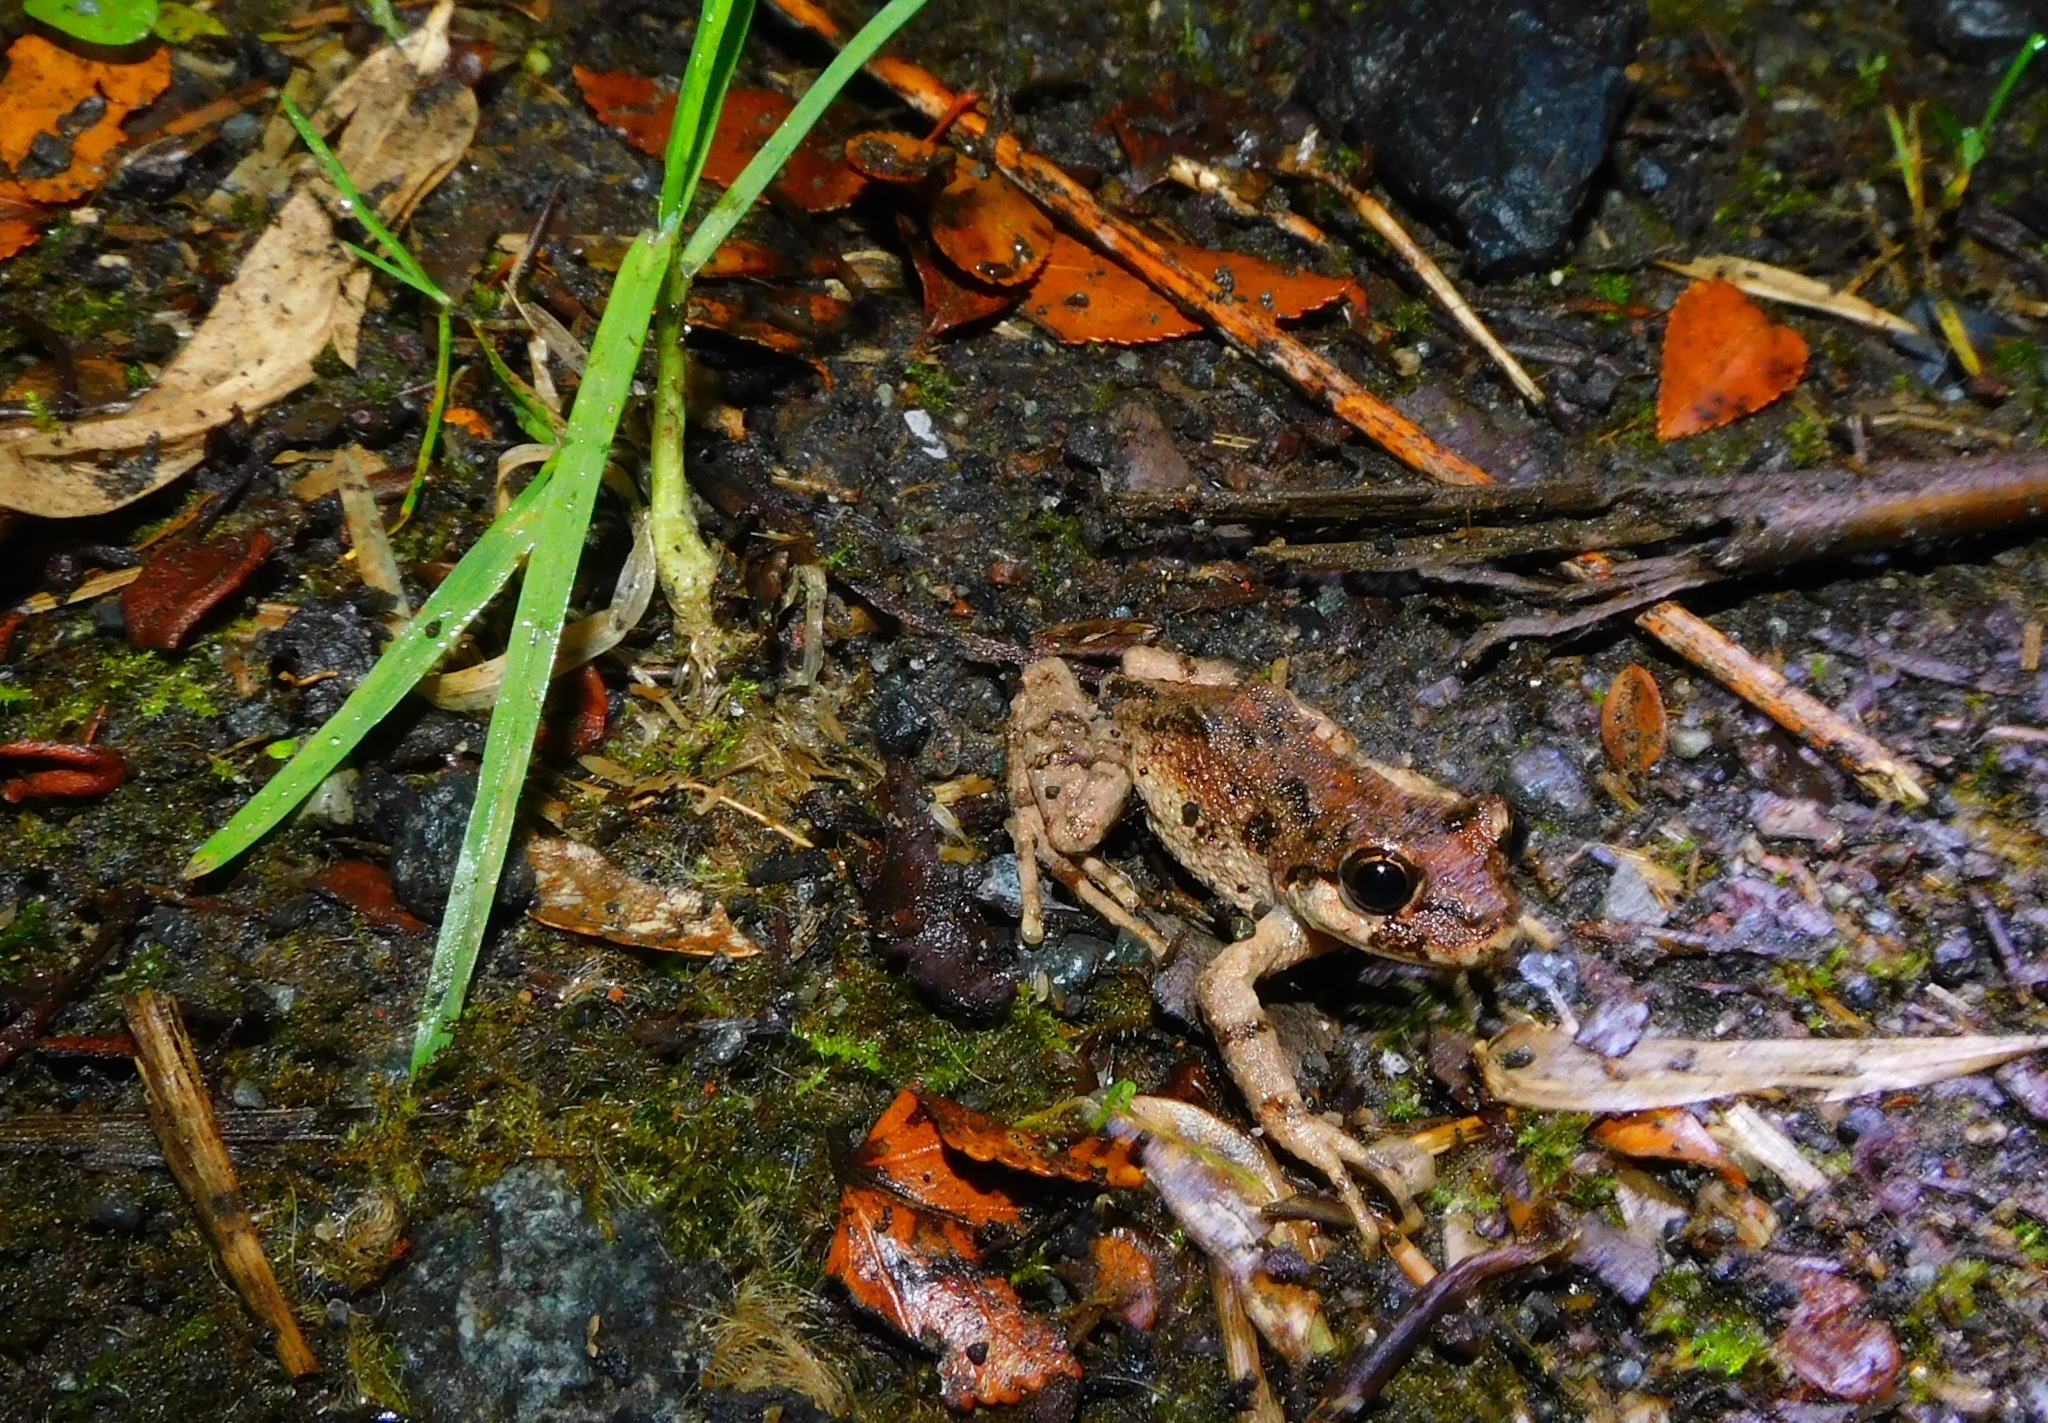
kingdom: Animalia
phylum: Chordata
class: Amphibia
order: Anura
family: Batrachylidae
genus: Batrachyla
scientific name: Batrachyla leptopus
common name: Gray wood frog
